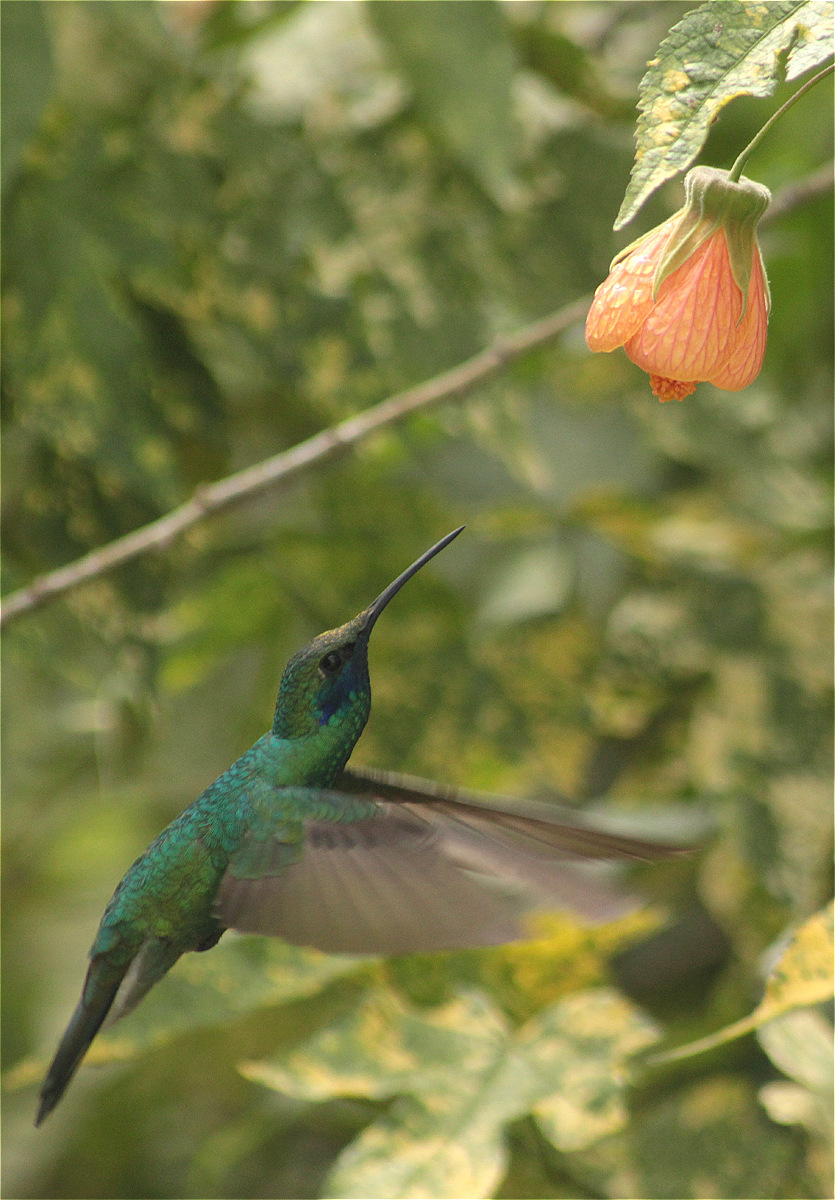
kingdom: Animalia
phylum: Chordata
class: Aves
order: Apodiformes
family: Trochilidae
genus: Colibri
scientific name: Colibri coruscans
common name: Sparkling violetear
